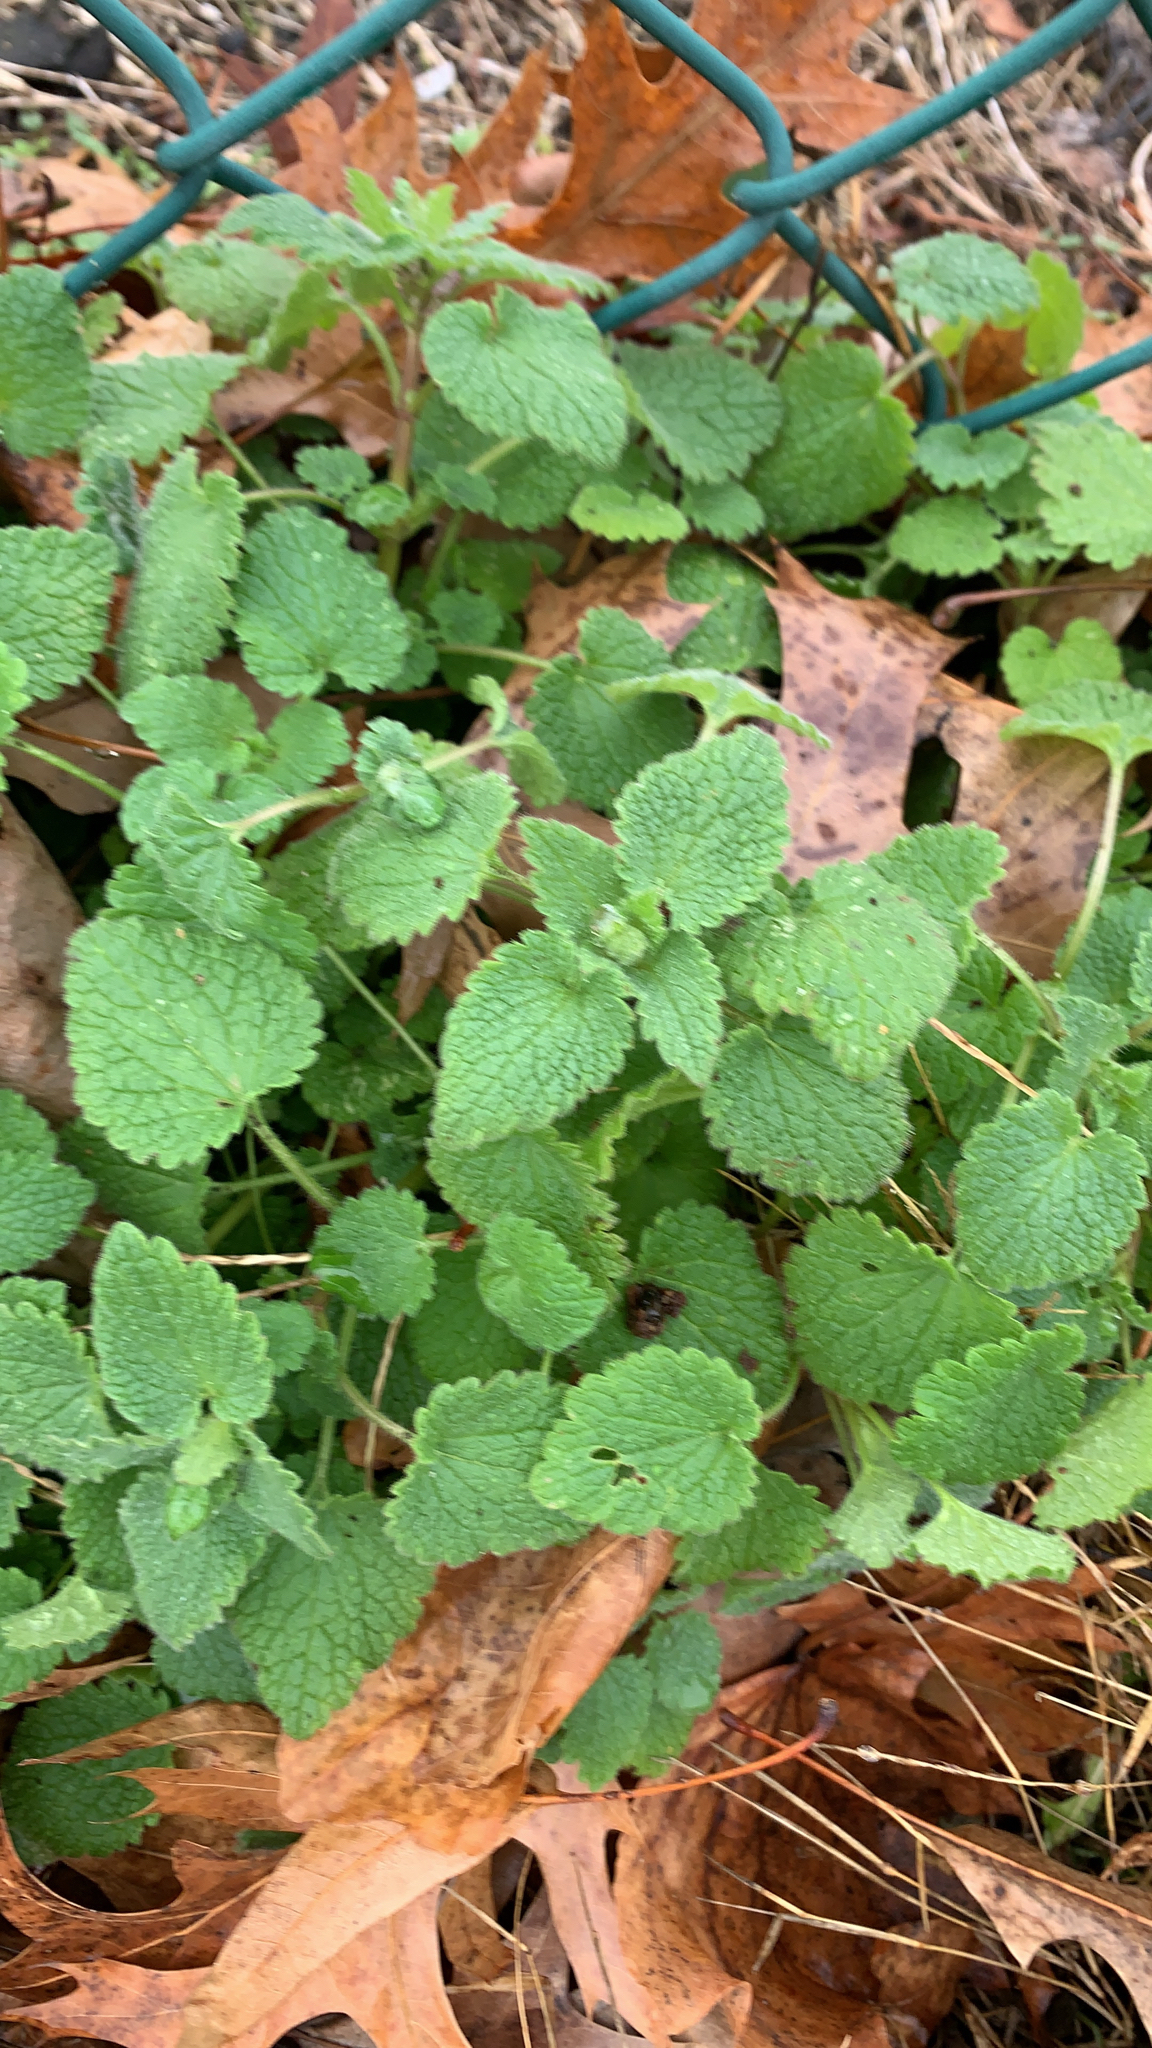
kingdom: Plantae
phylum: Tracheophyta
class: Magnoliopsida
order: Lamiales
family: Lamiaceae
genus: Lamium
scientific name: Lamium purpureum
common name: Red dead-nettle
